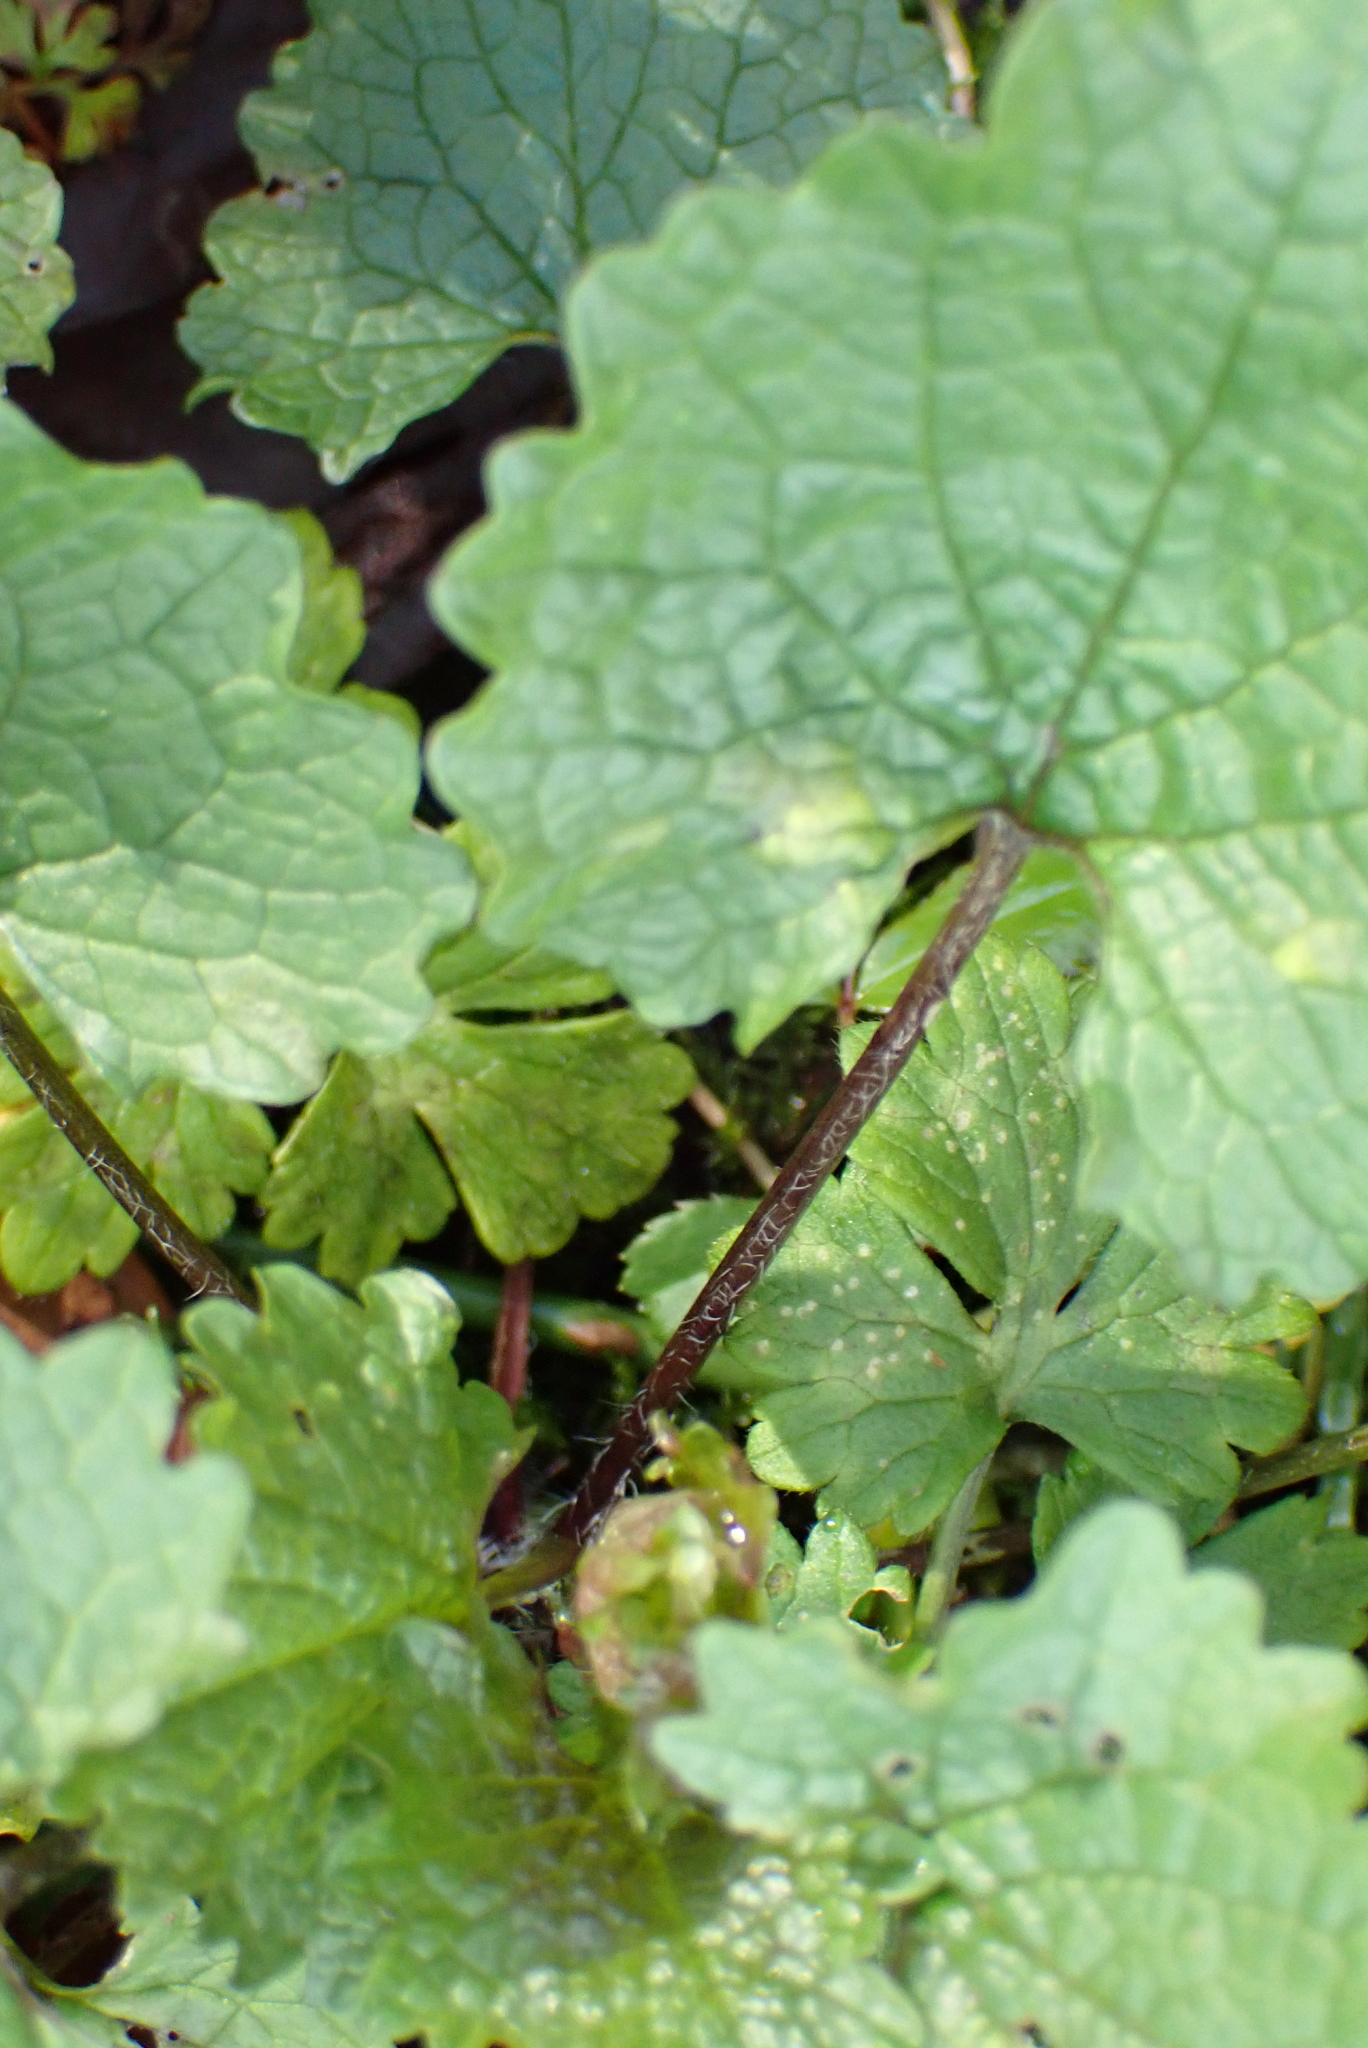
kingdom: Plantae
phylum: Tracheophyta
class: Magnoliopsida
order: Brassicales
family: Brassicaceae
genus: Alliaria
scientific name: Alliaria petiolata
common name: Garlic mustard
